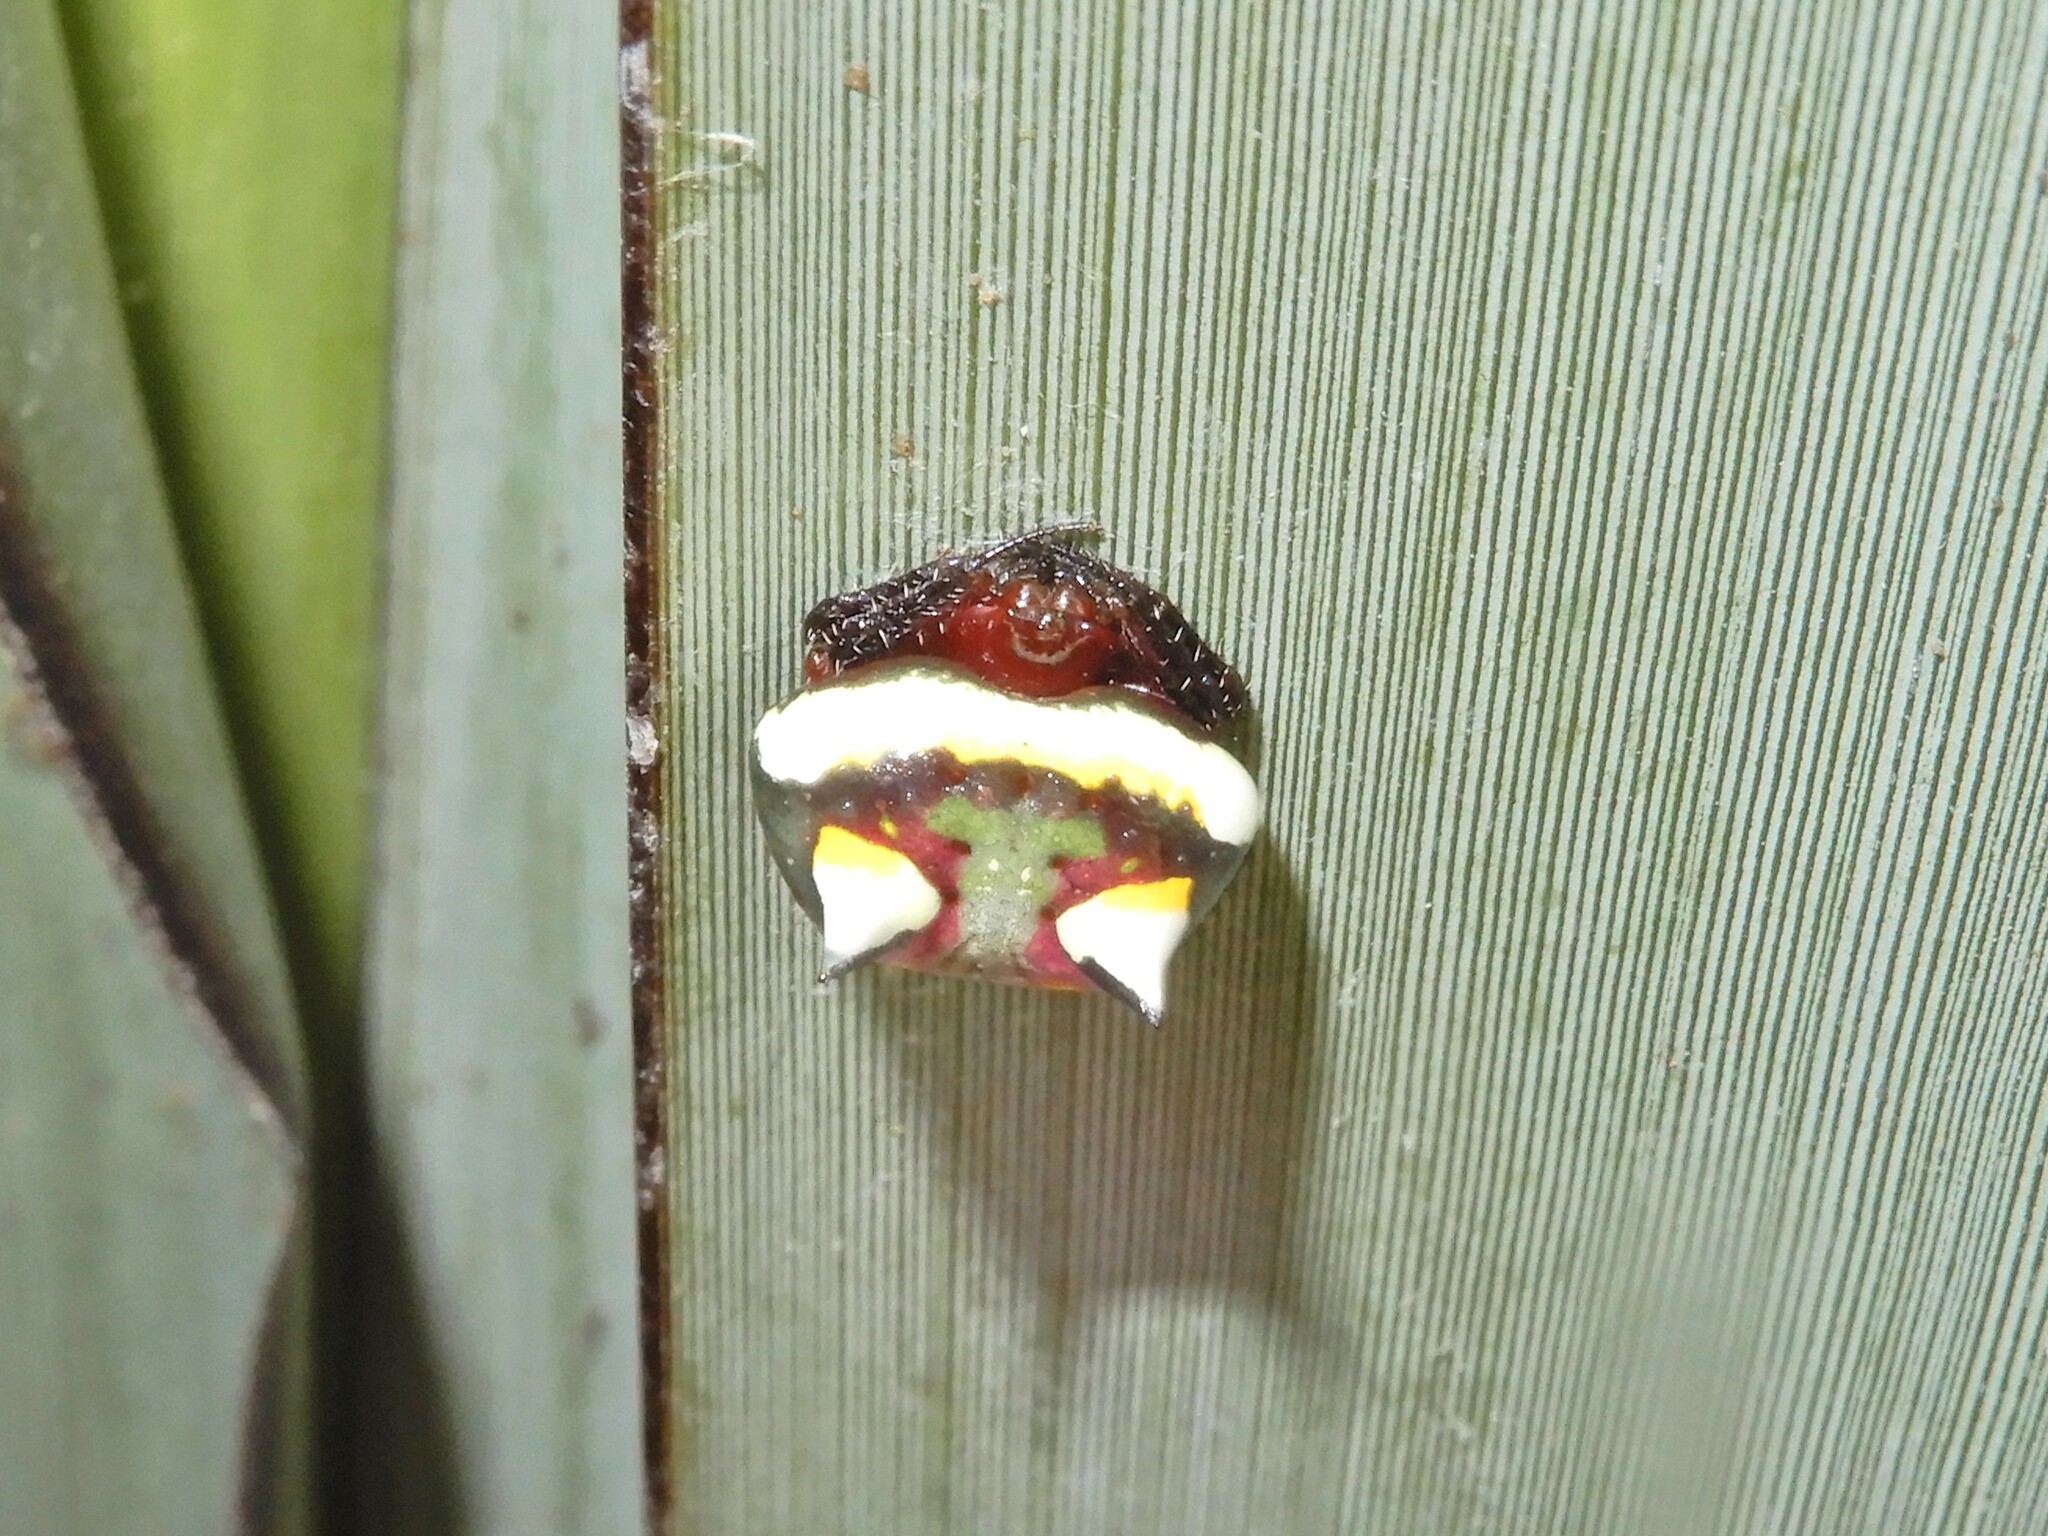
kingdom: Animalia
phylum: Arthropoda
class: Arachnida
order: Araneae
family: Araneidae
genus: Poecilopachys
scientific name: Poecilopachys australasia
